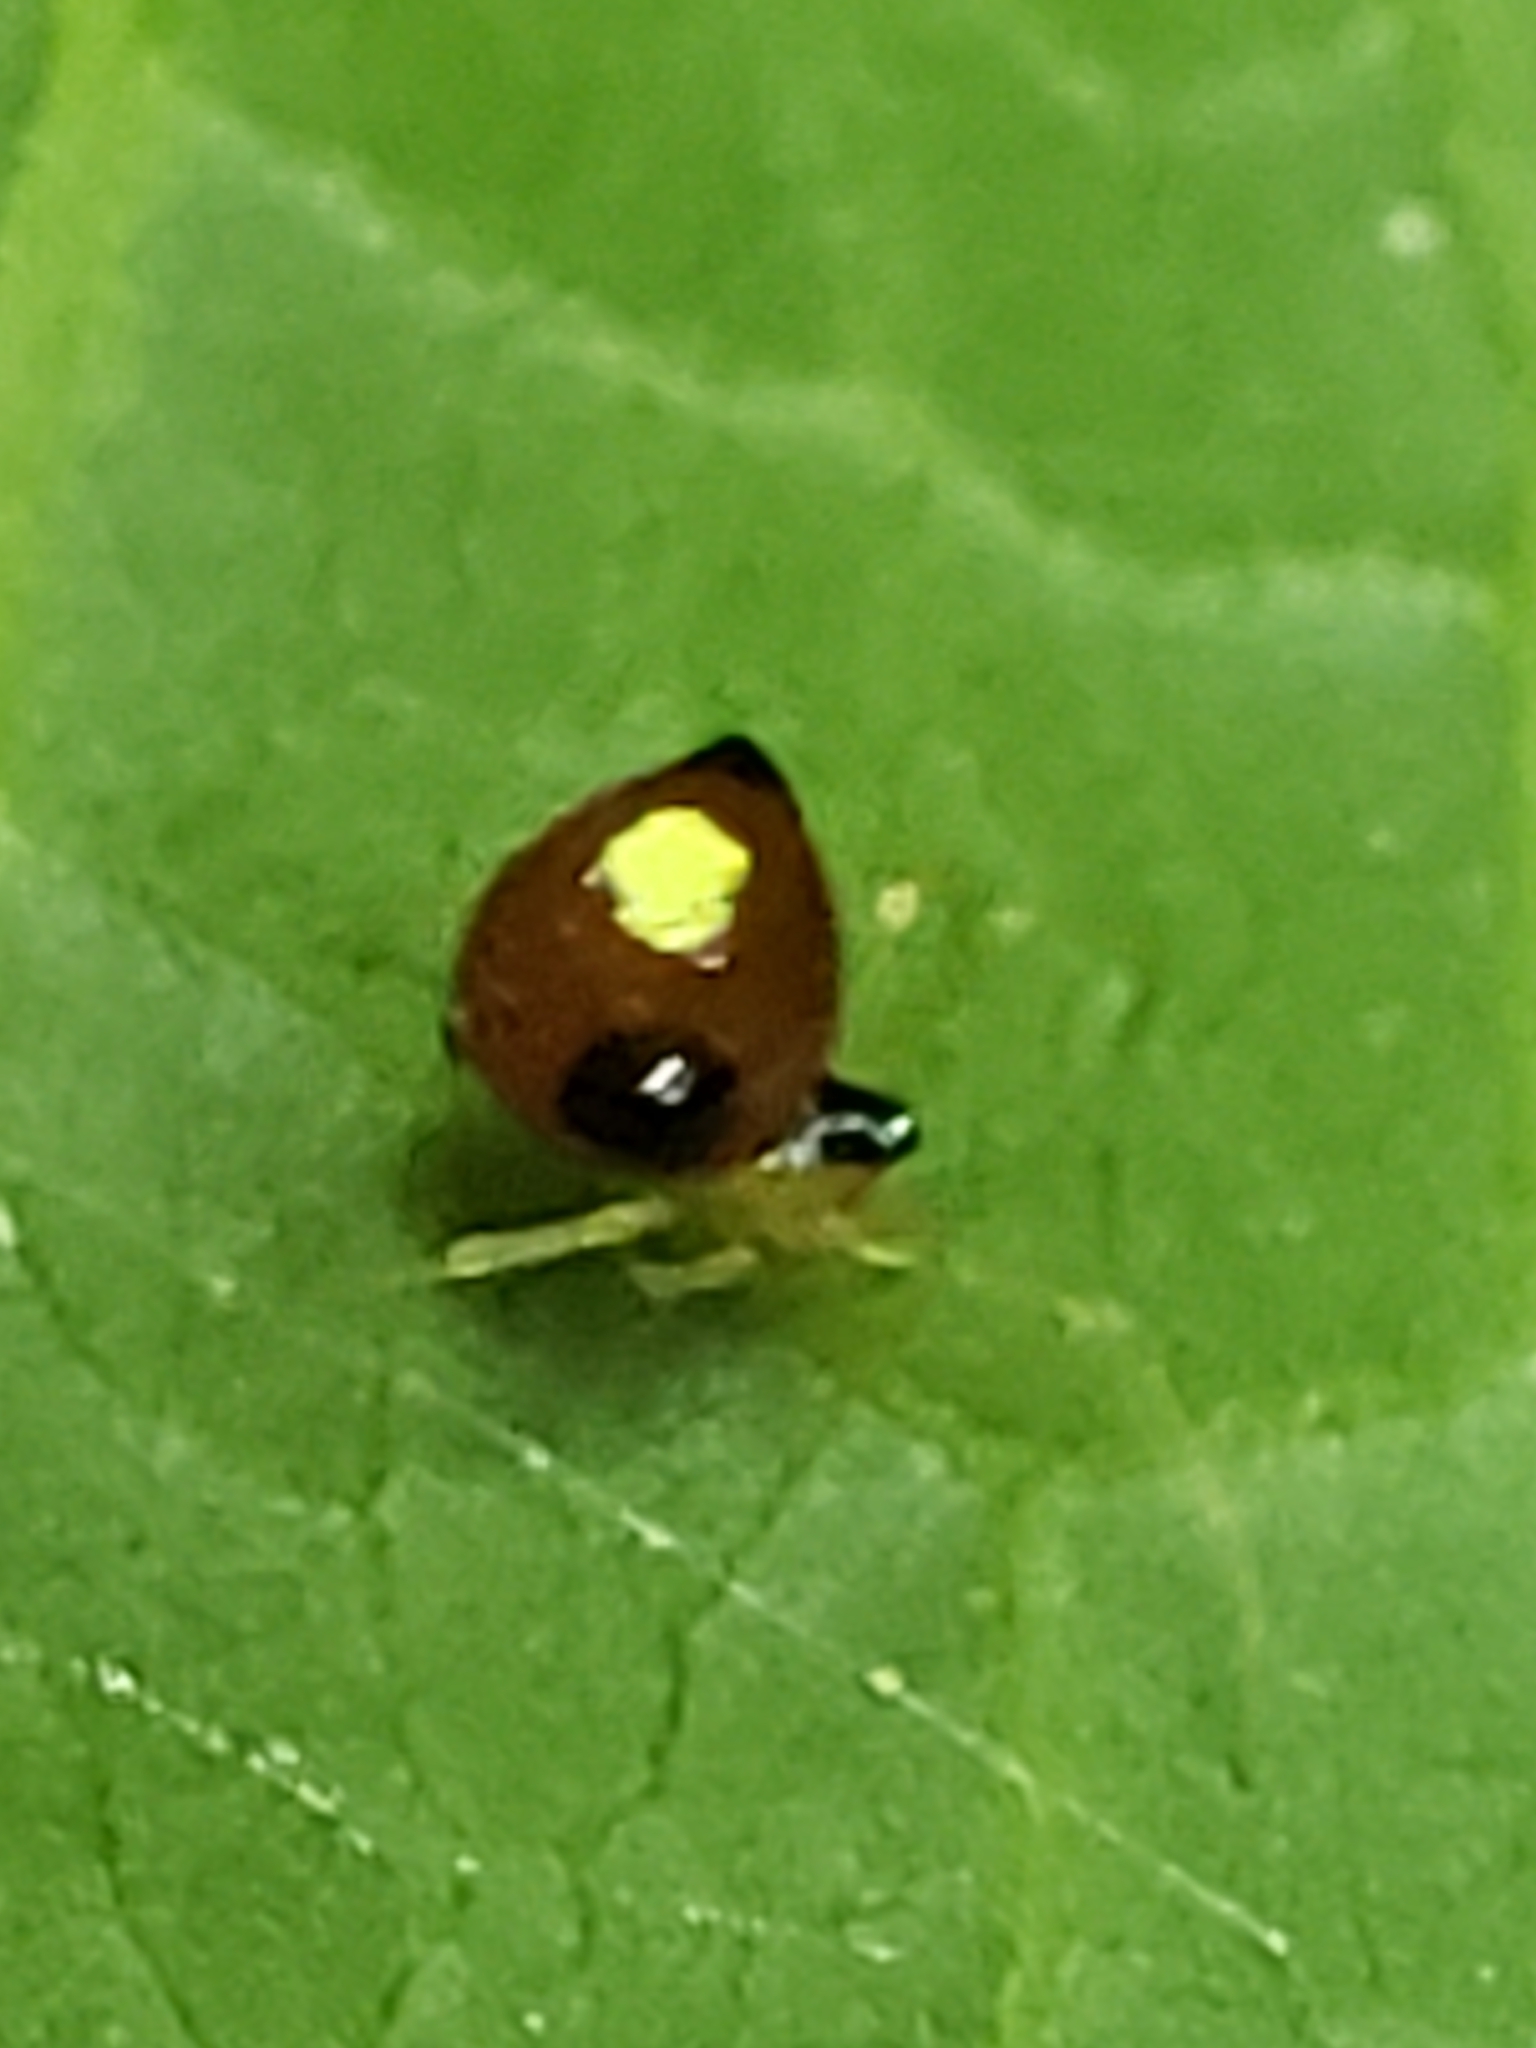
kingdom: Animalia
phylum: Arthropoda
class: Arachnida
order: Araneae
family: Theridiidae
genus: Theridula
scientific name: Theridula emertoni
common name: Emerton's bitubercled cobweaver
